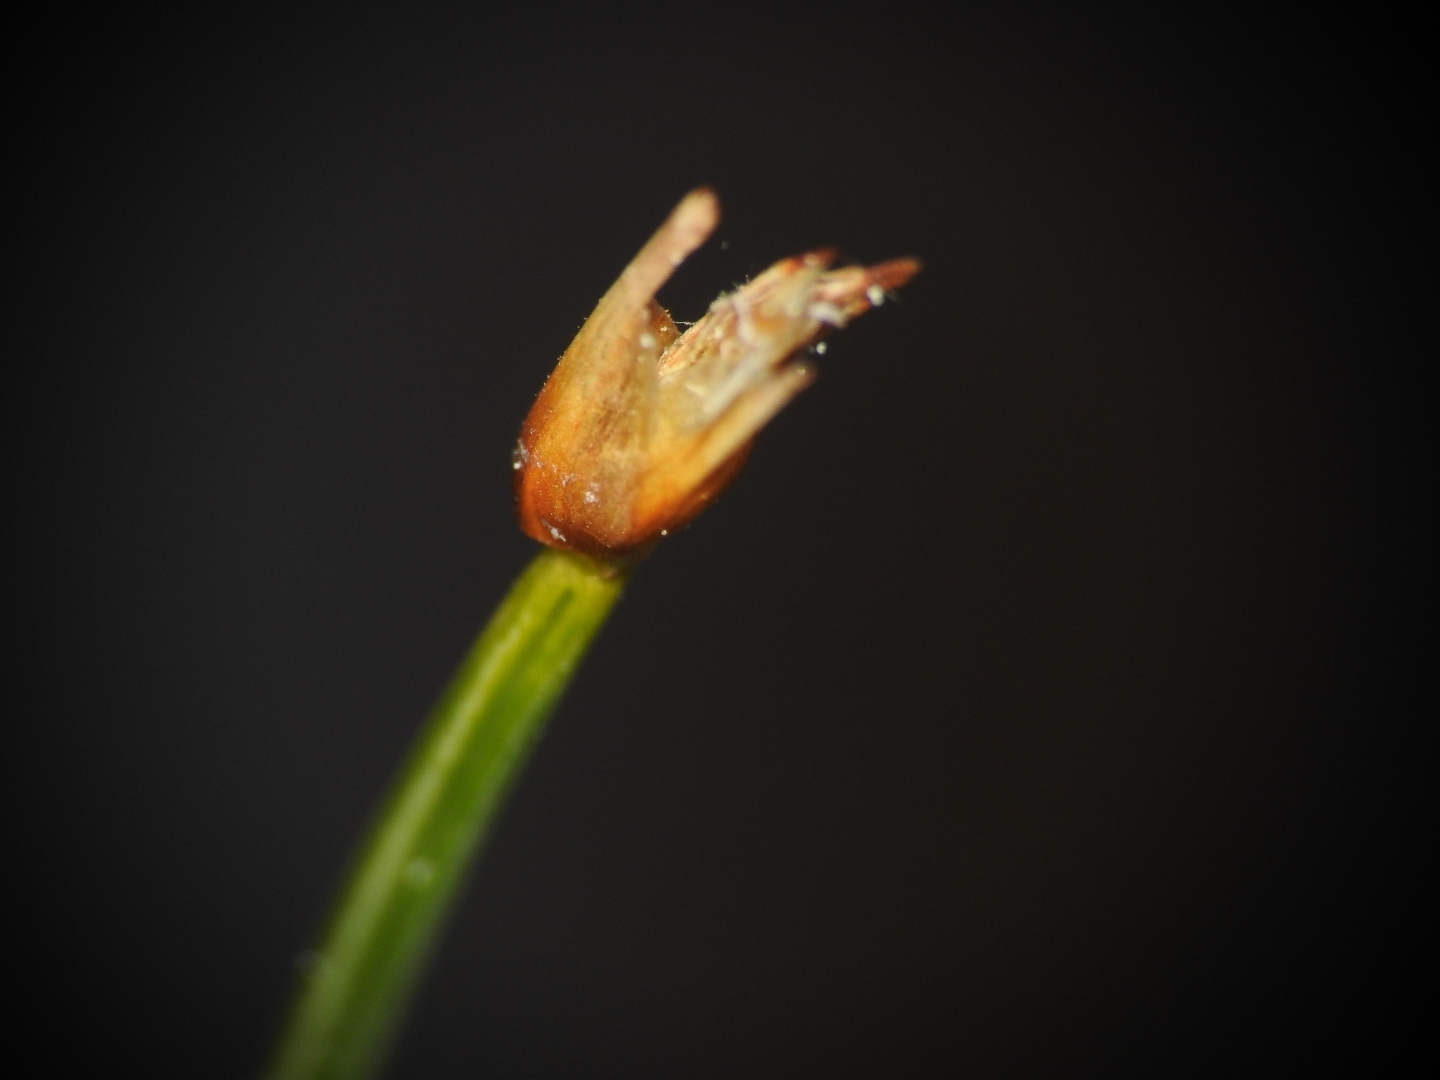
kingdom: Plantae
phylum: Tracheophyta
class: Liliopsida
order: Poales
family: Cyperaceae
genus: Trichophorum
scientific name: Trichophorum cespitosum
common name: Cespitose bulrush
